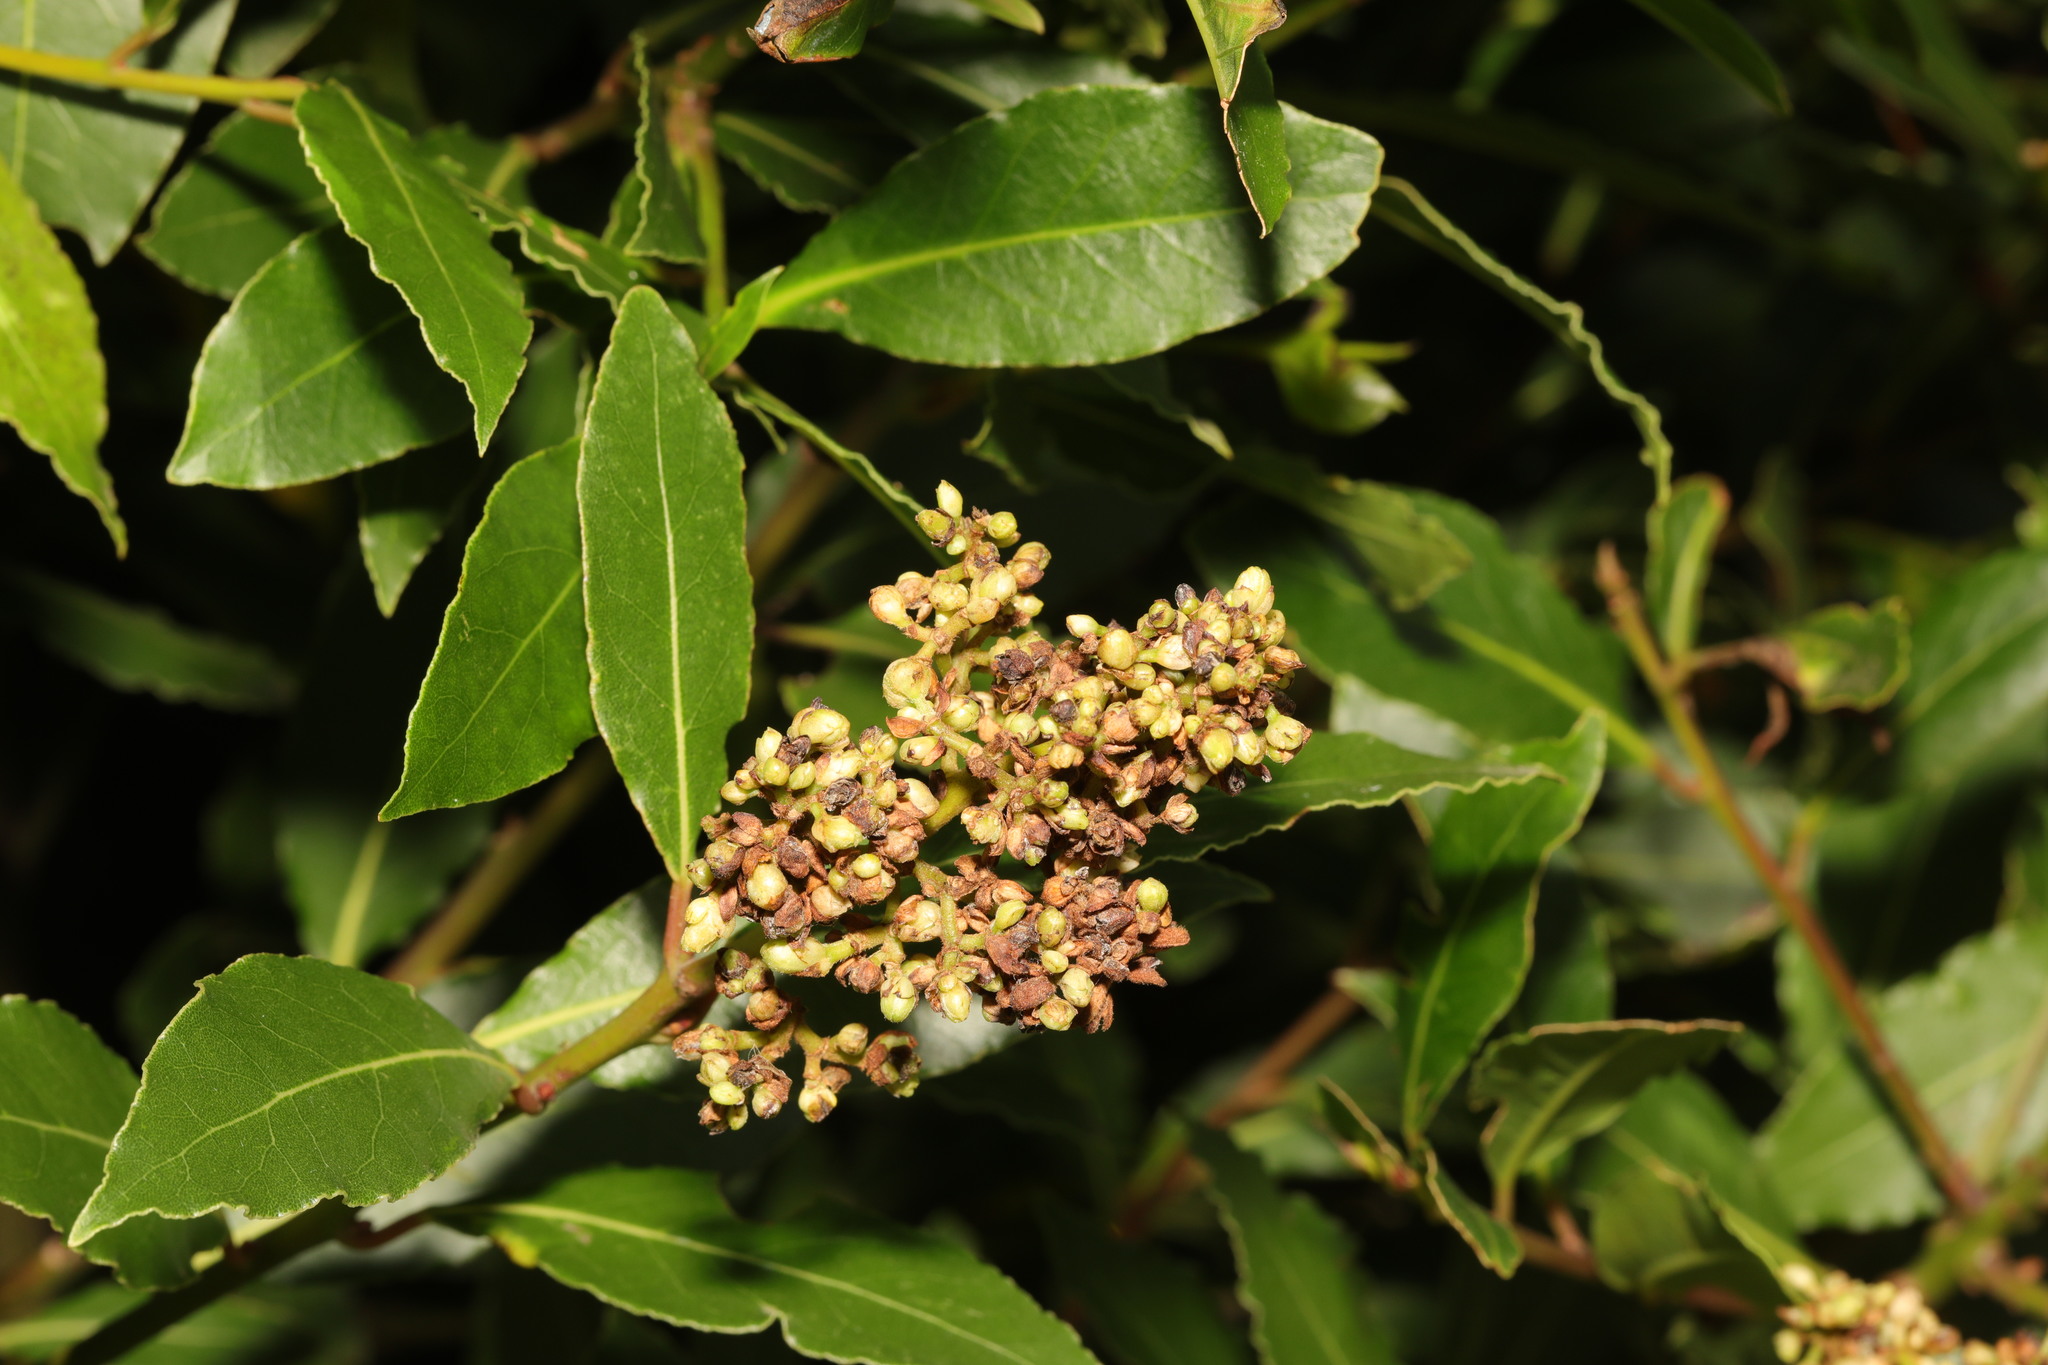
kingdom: Plantae
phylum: Tracheophyta
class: Magnoliopsida
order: Laurales
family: Lauraceae
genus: Laurus
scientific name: Laurus nobilis
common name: Bay
